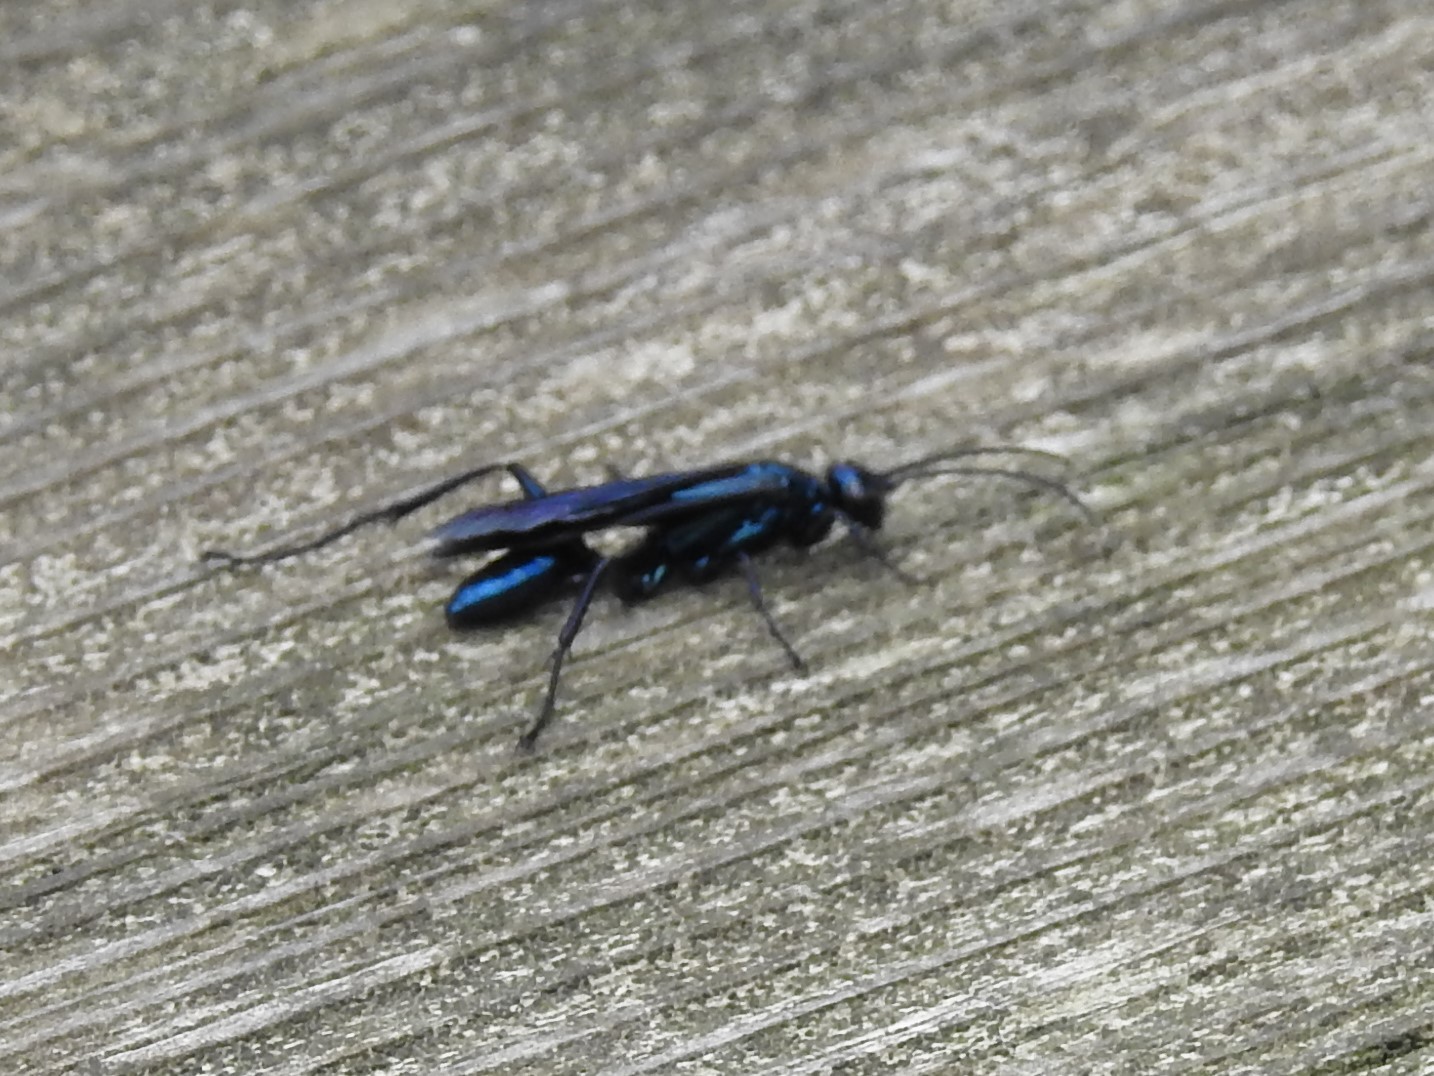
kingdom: Animalia
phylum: Arthropoda
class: Insecta
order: Hymenoptera
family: Sphecidae
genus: Chalybion
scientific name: Chalybion californicum
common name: Mud dauber
